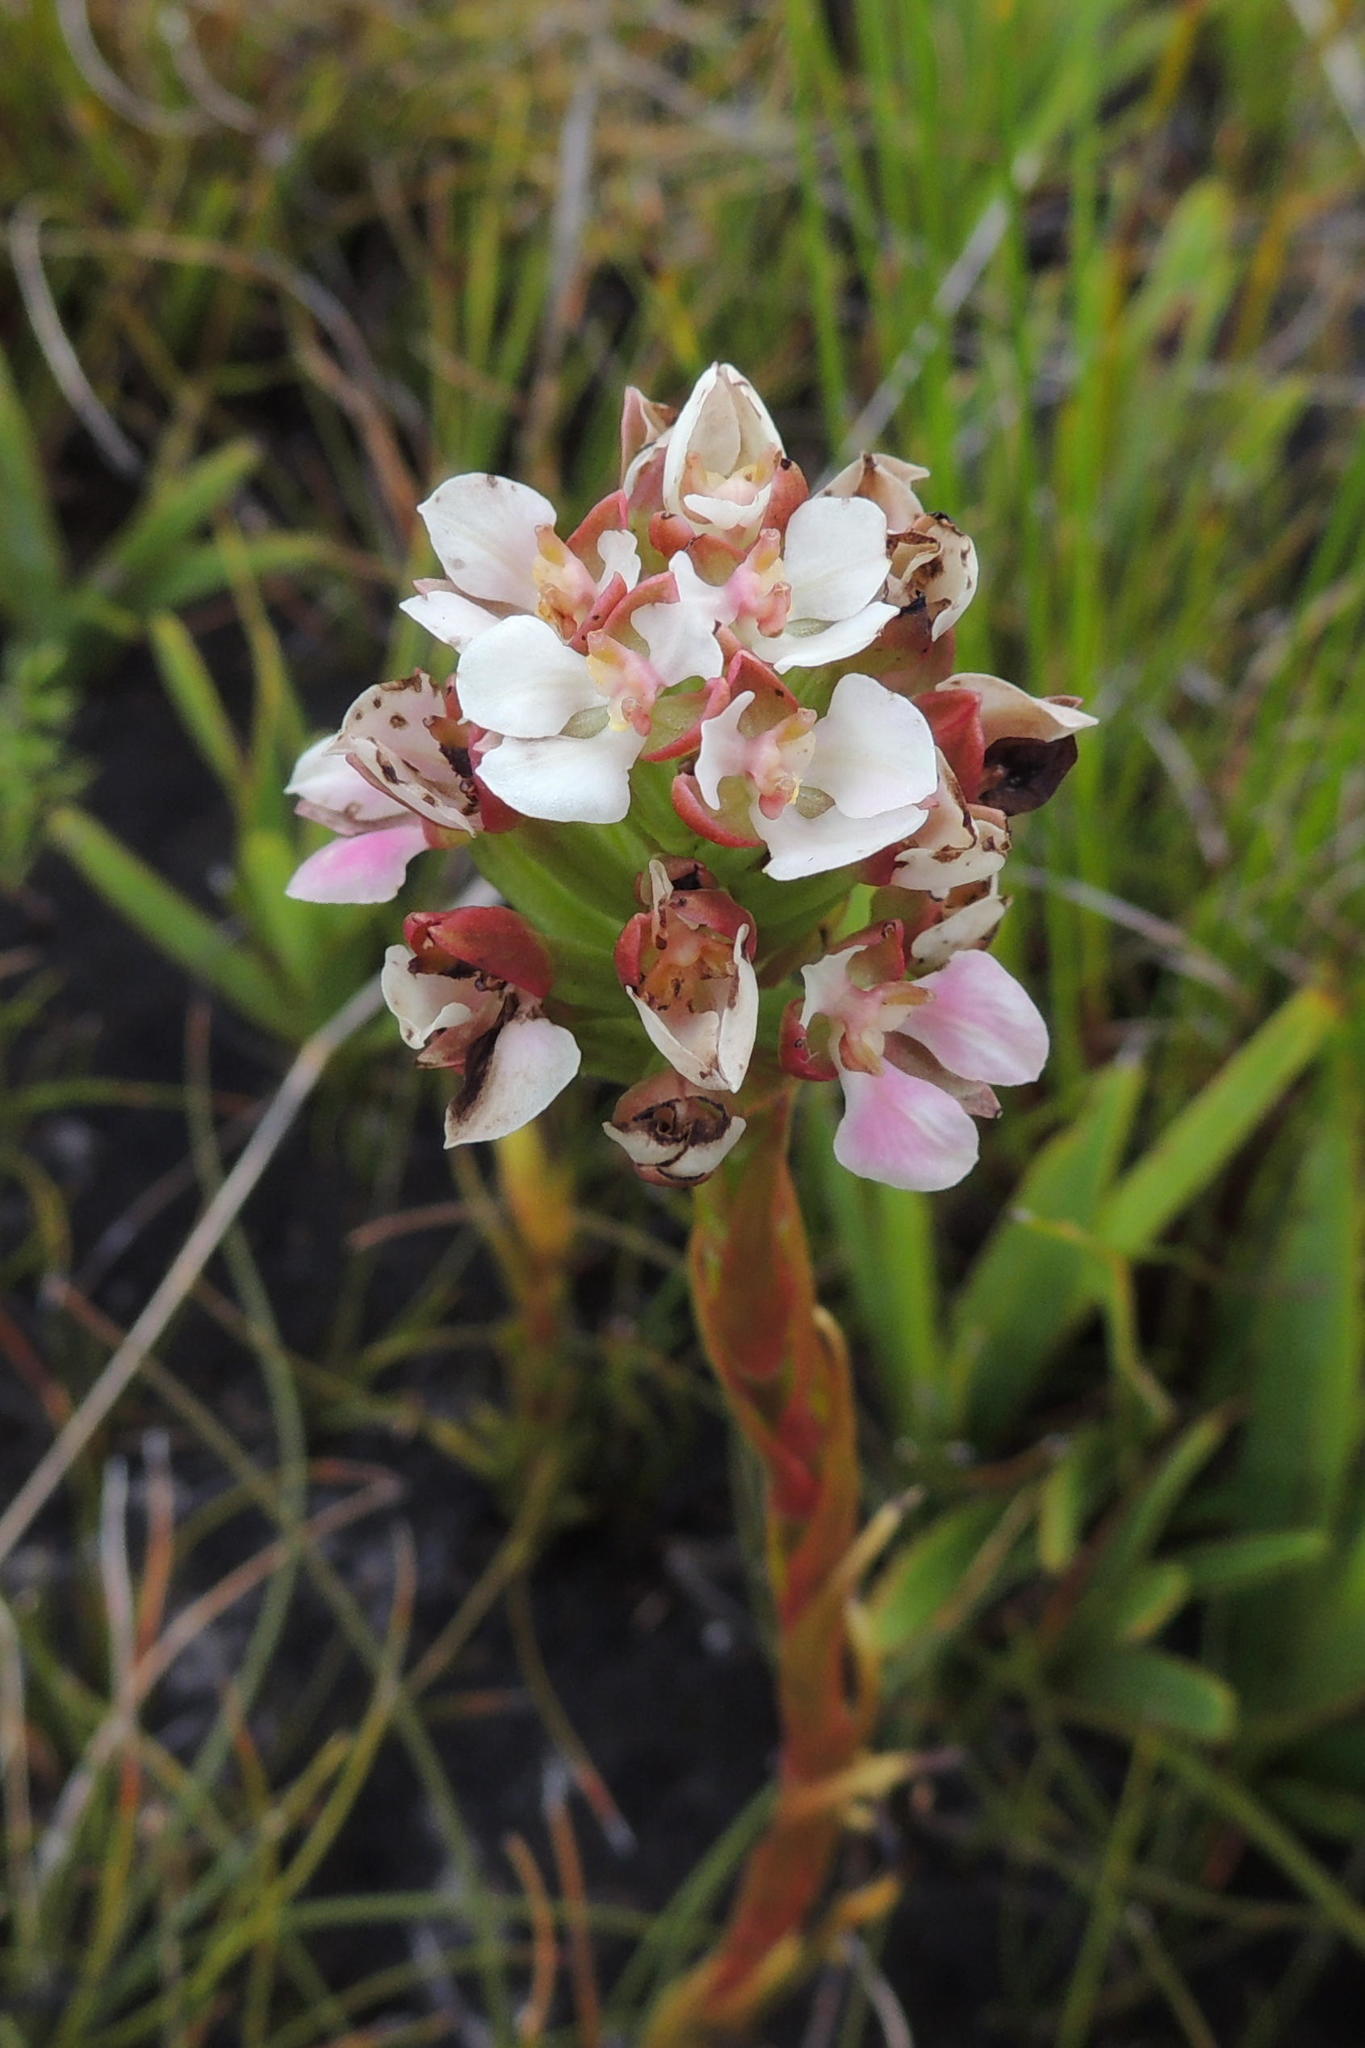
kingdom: Plantae
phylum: Tracheophyta
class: Liliopsida
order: Asparagales
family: Orchidaceae
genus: Ceratandra
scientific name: Ceratandra globosa
